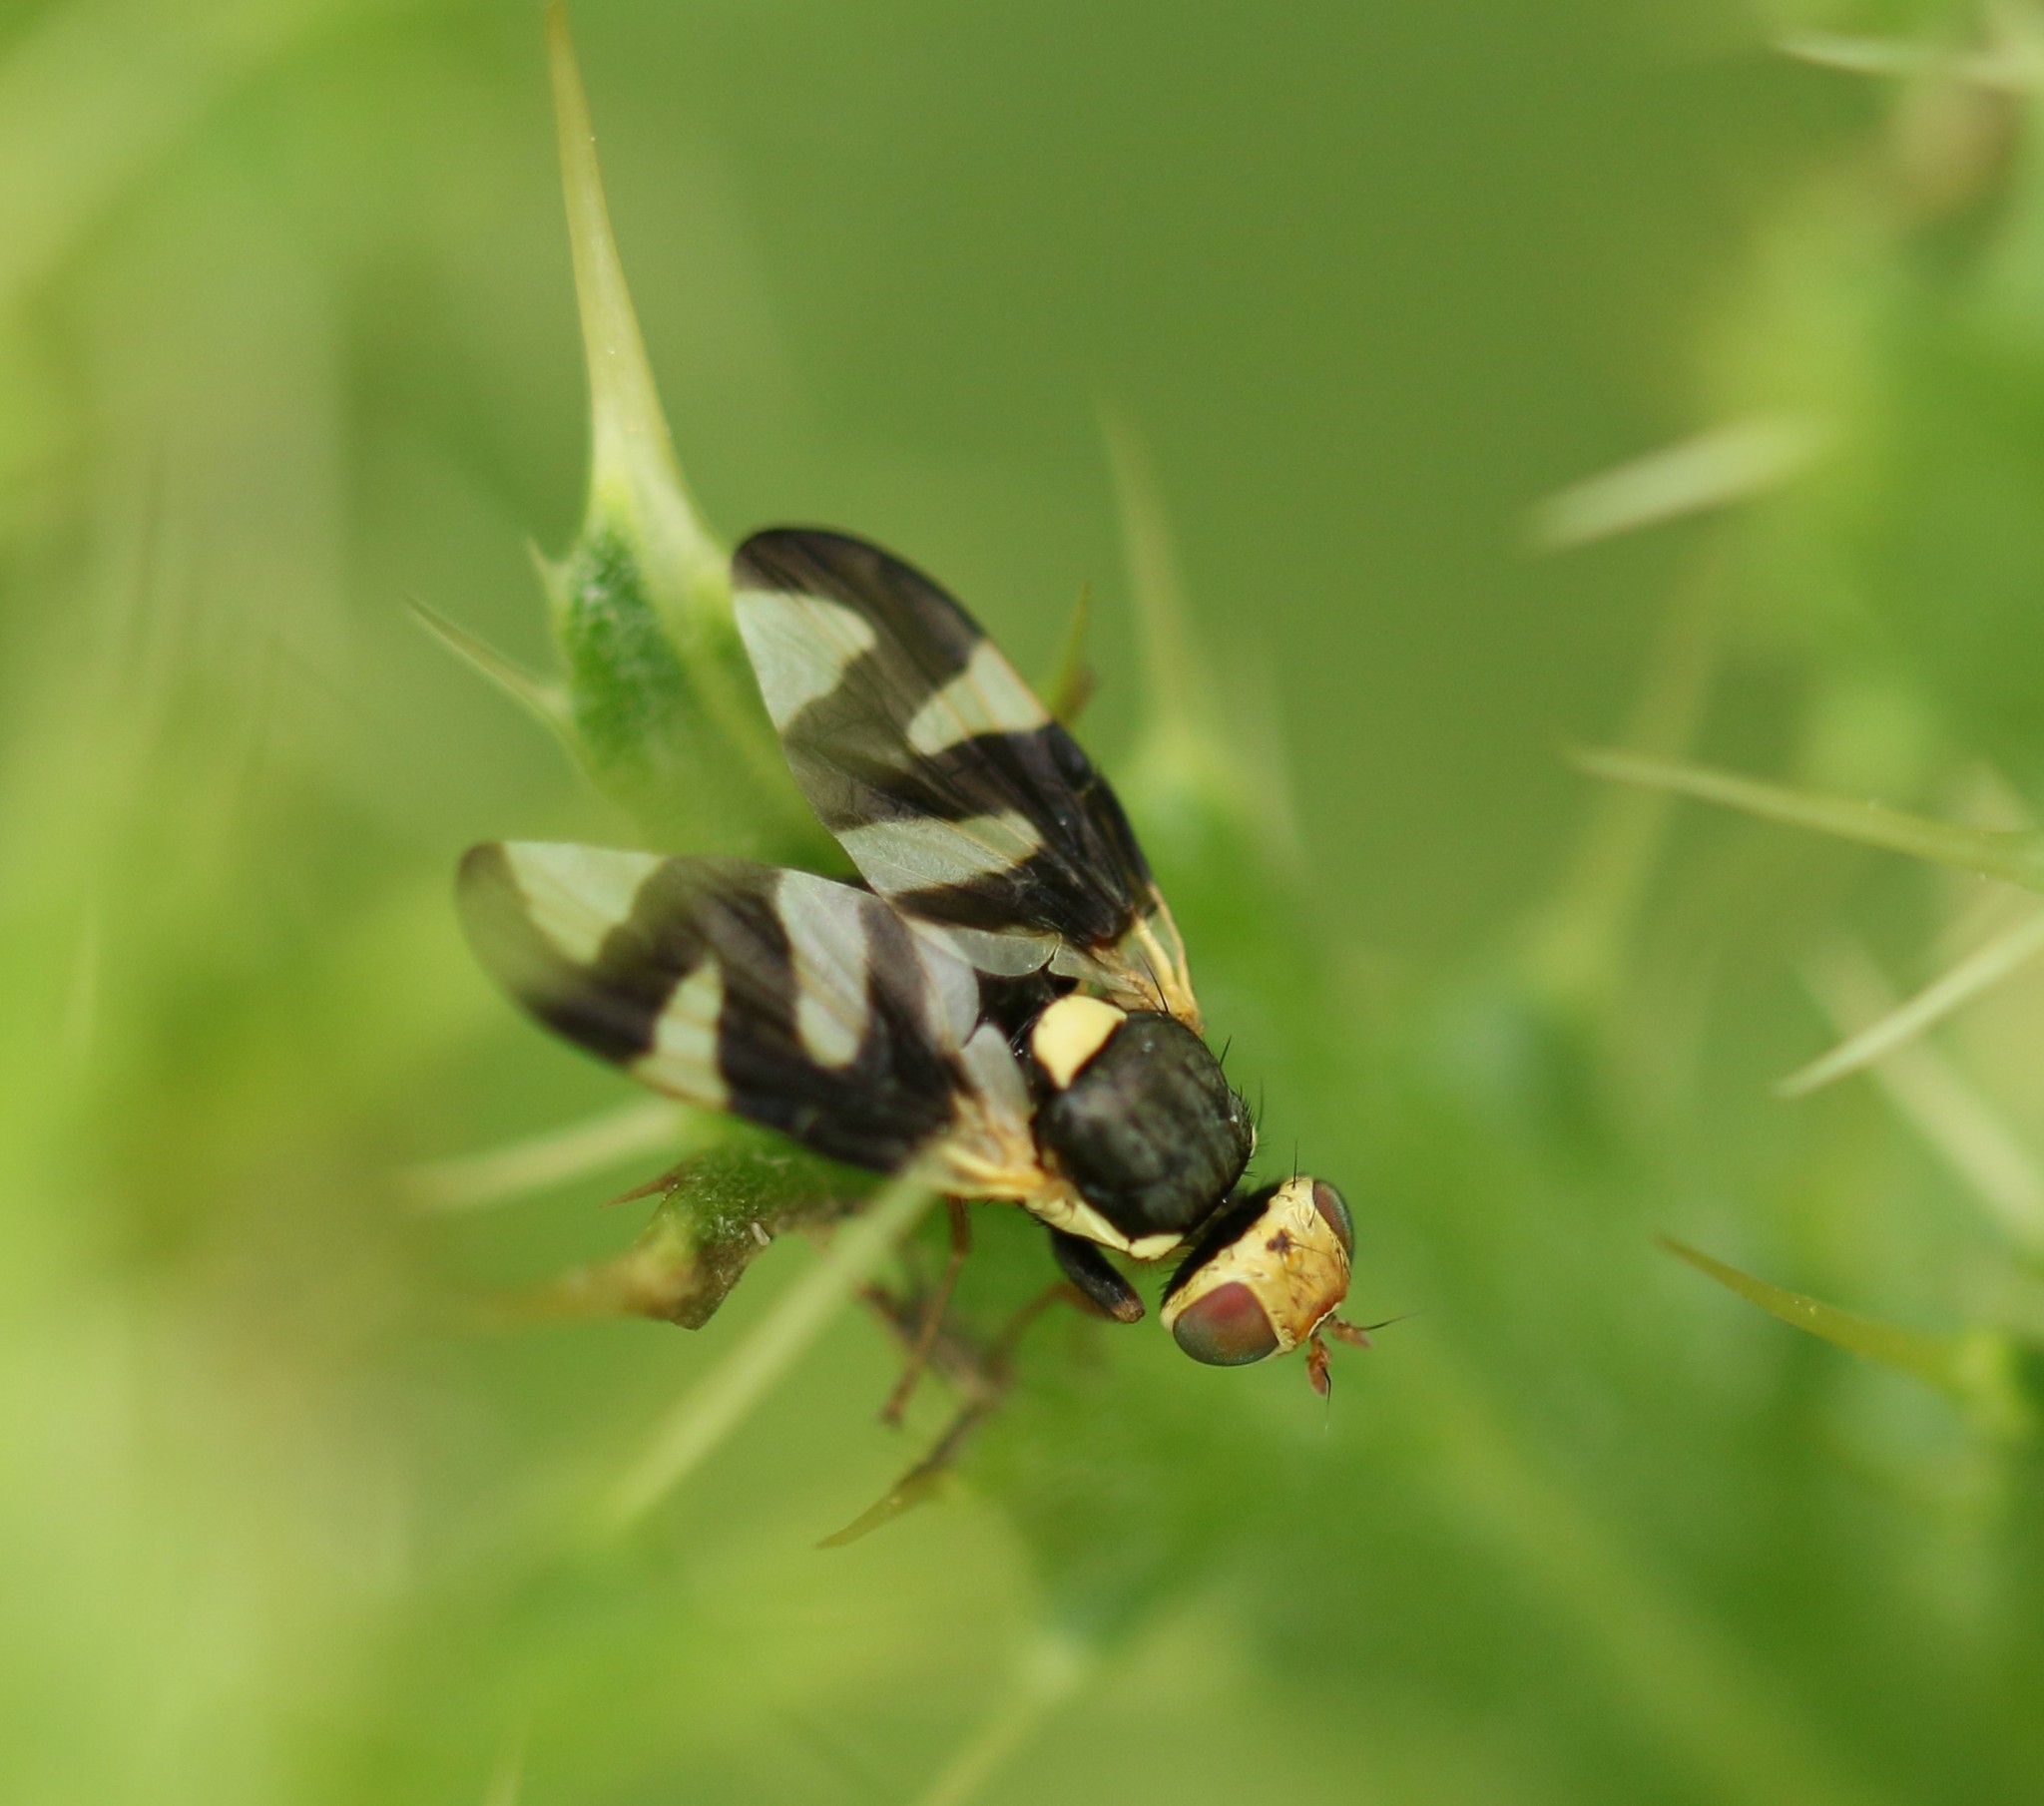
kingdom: Animalia
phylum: Arthropoda
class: Insecta
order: Diptera
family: Tephritidae
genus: Urophora
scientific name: Urophora cardui
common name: Fruit fly
